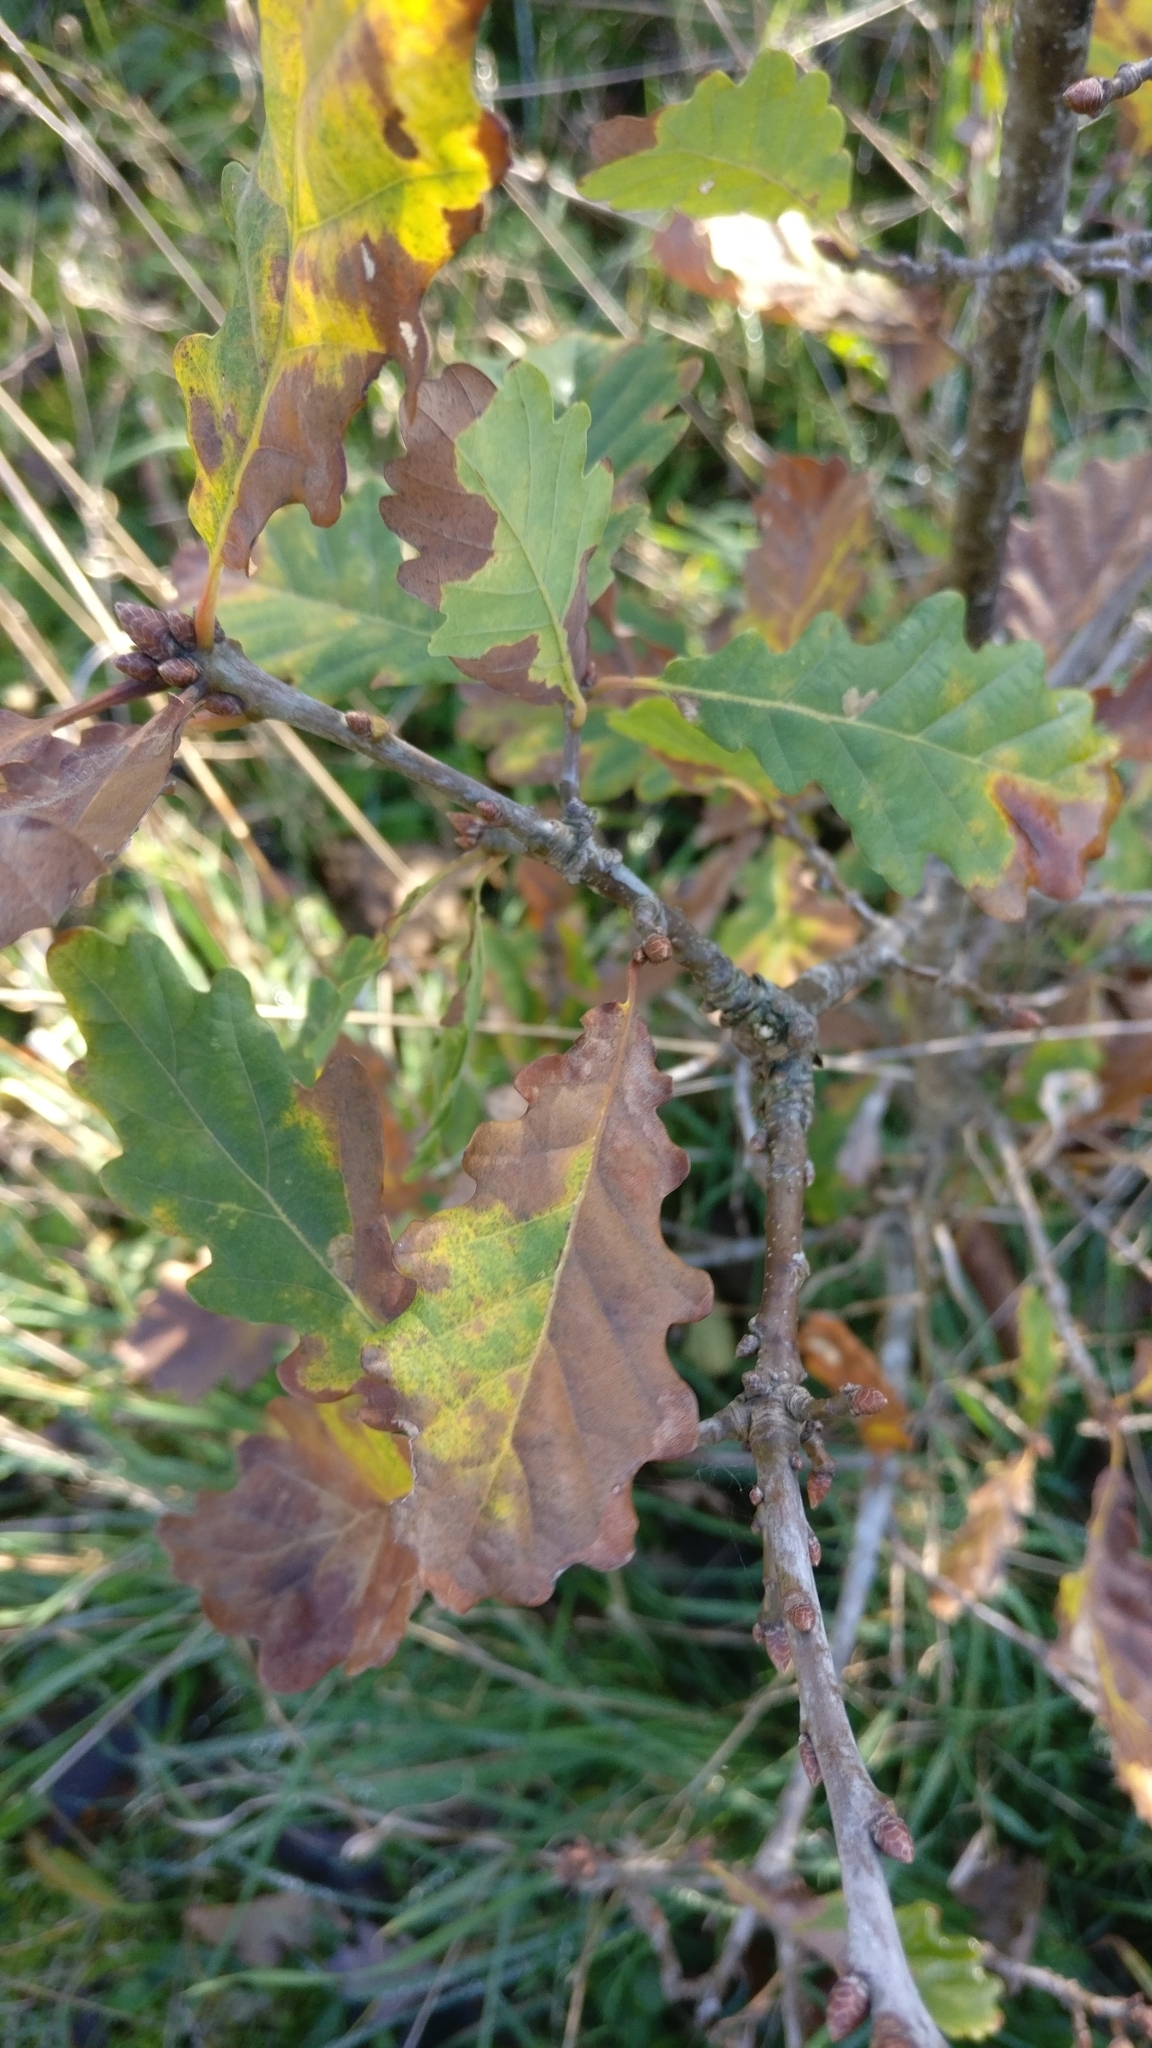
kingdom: Plantae
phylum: Tracheophyta
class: Magnoliopsida
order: Fagales
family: Fagaceae
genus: Quercus
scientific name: Quercus petraea
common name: Sessile oak
